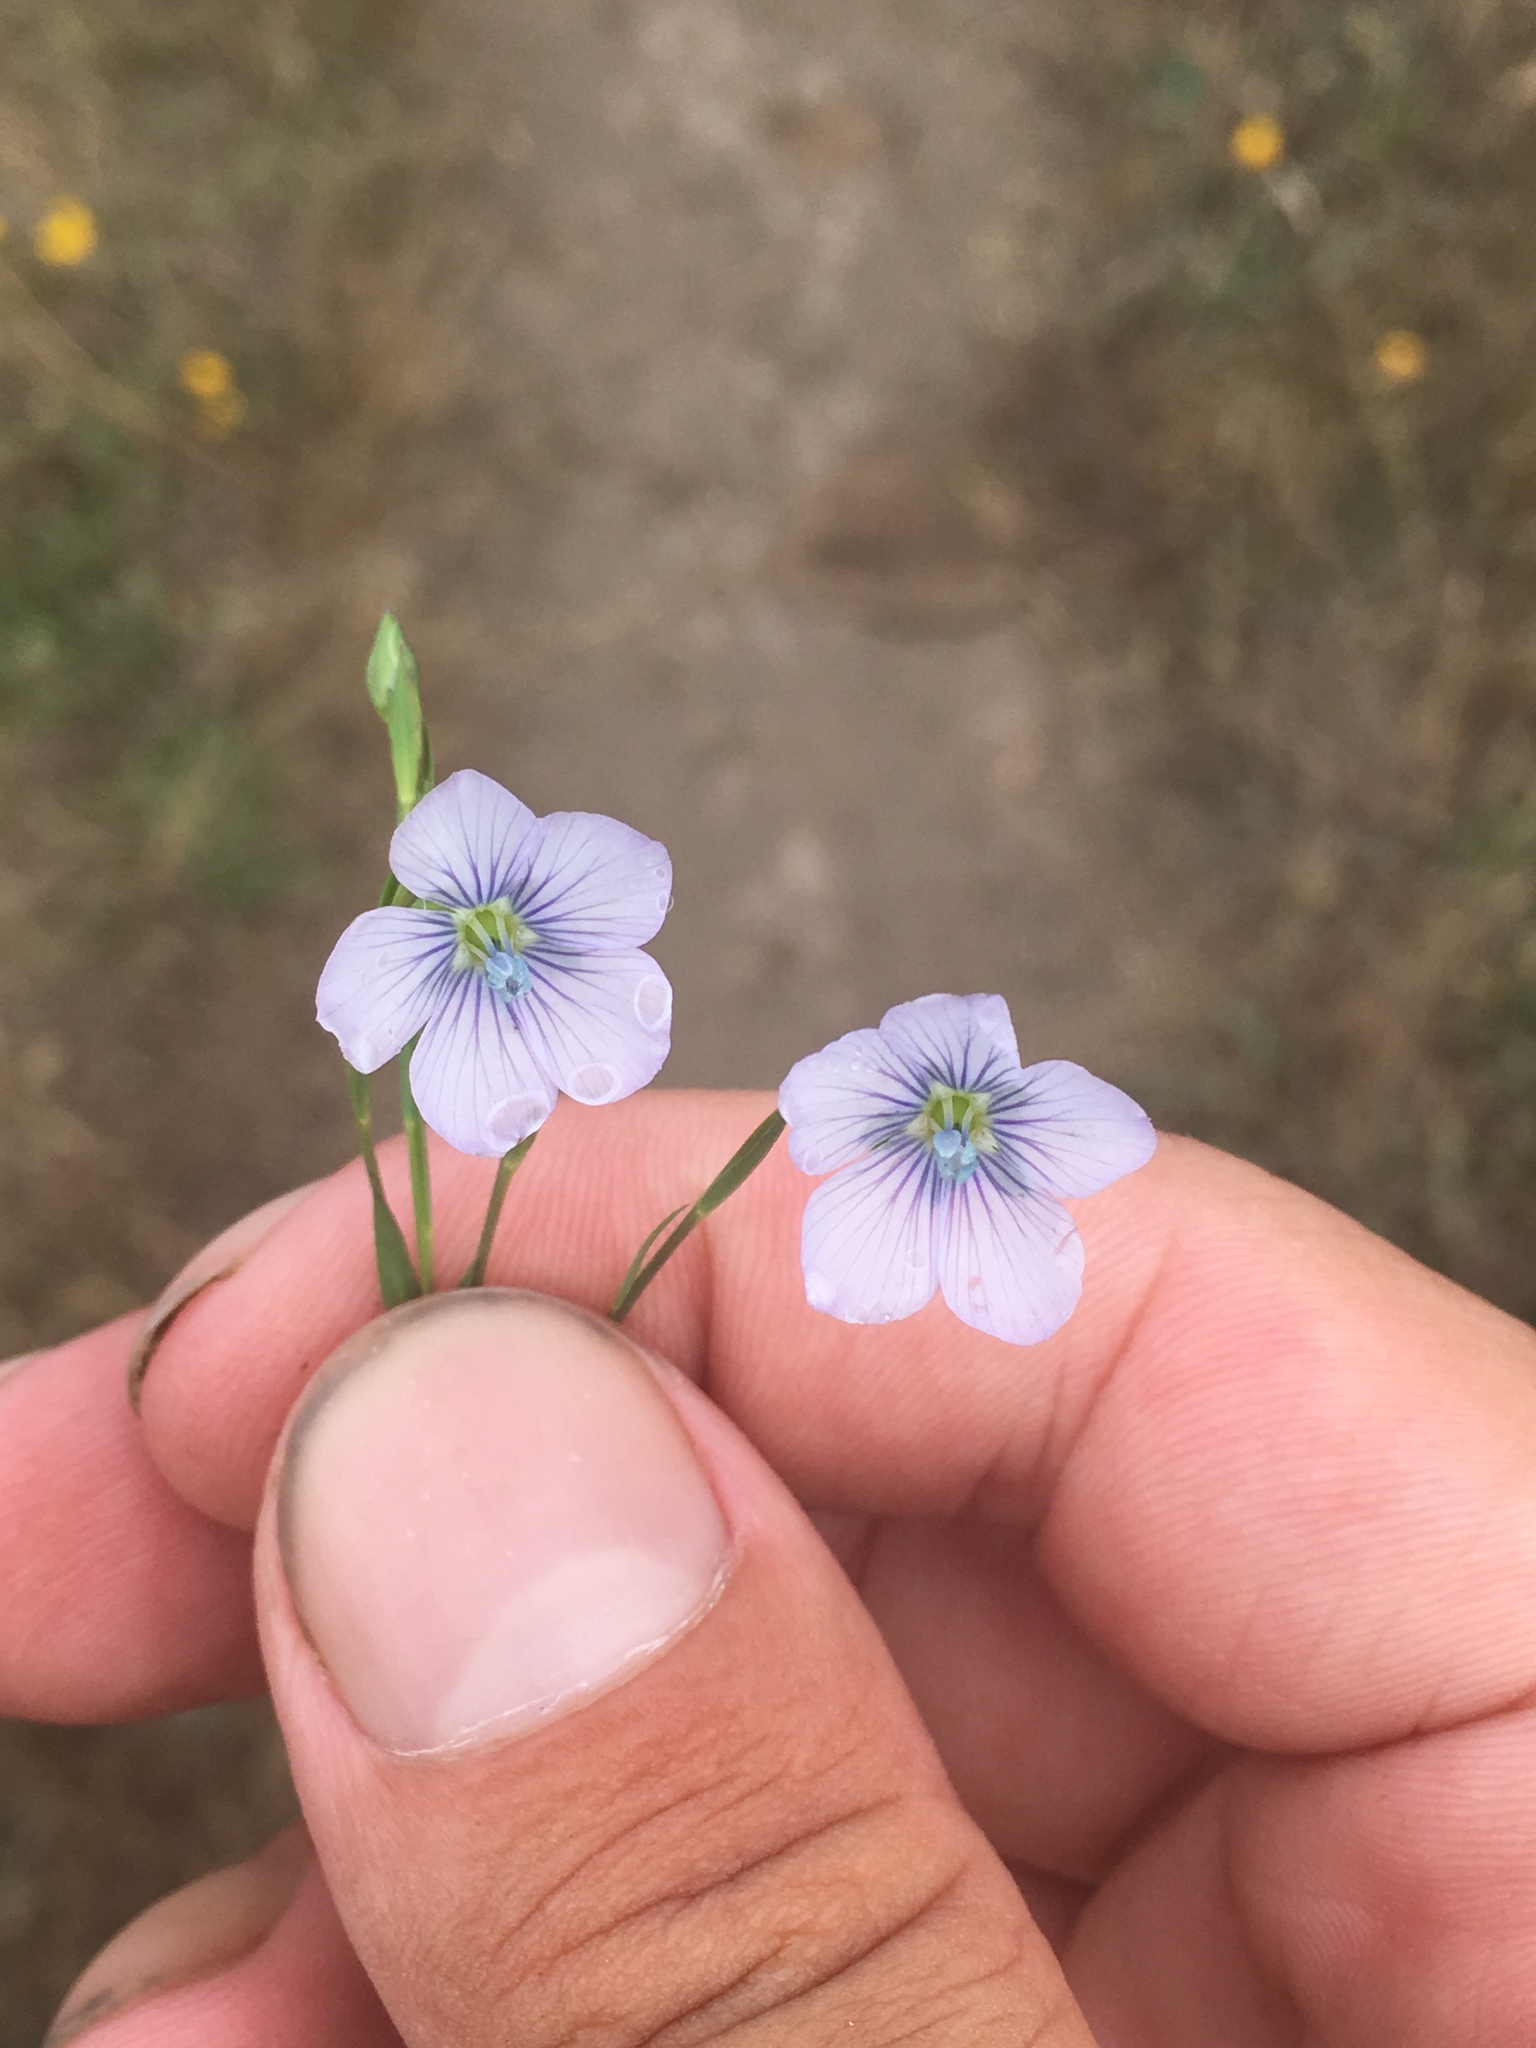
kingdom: Plantae
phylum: Tracheophyta
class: Magnoliopsida
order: Malpighiales
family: Linaceae
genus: Linum
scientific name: Linum bienne
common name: Pale flax
